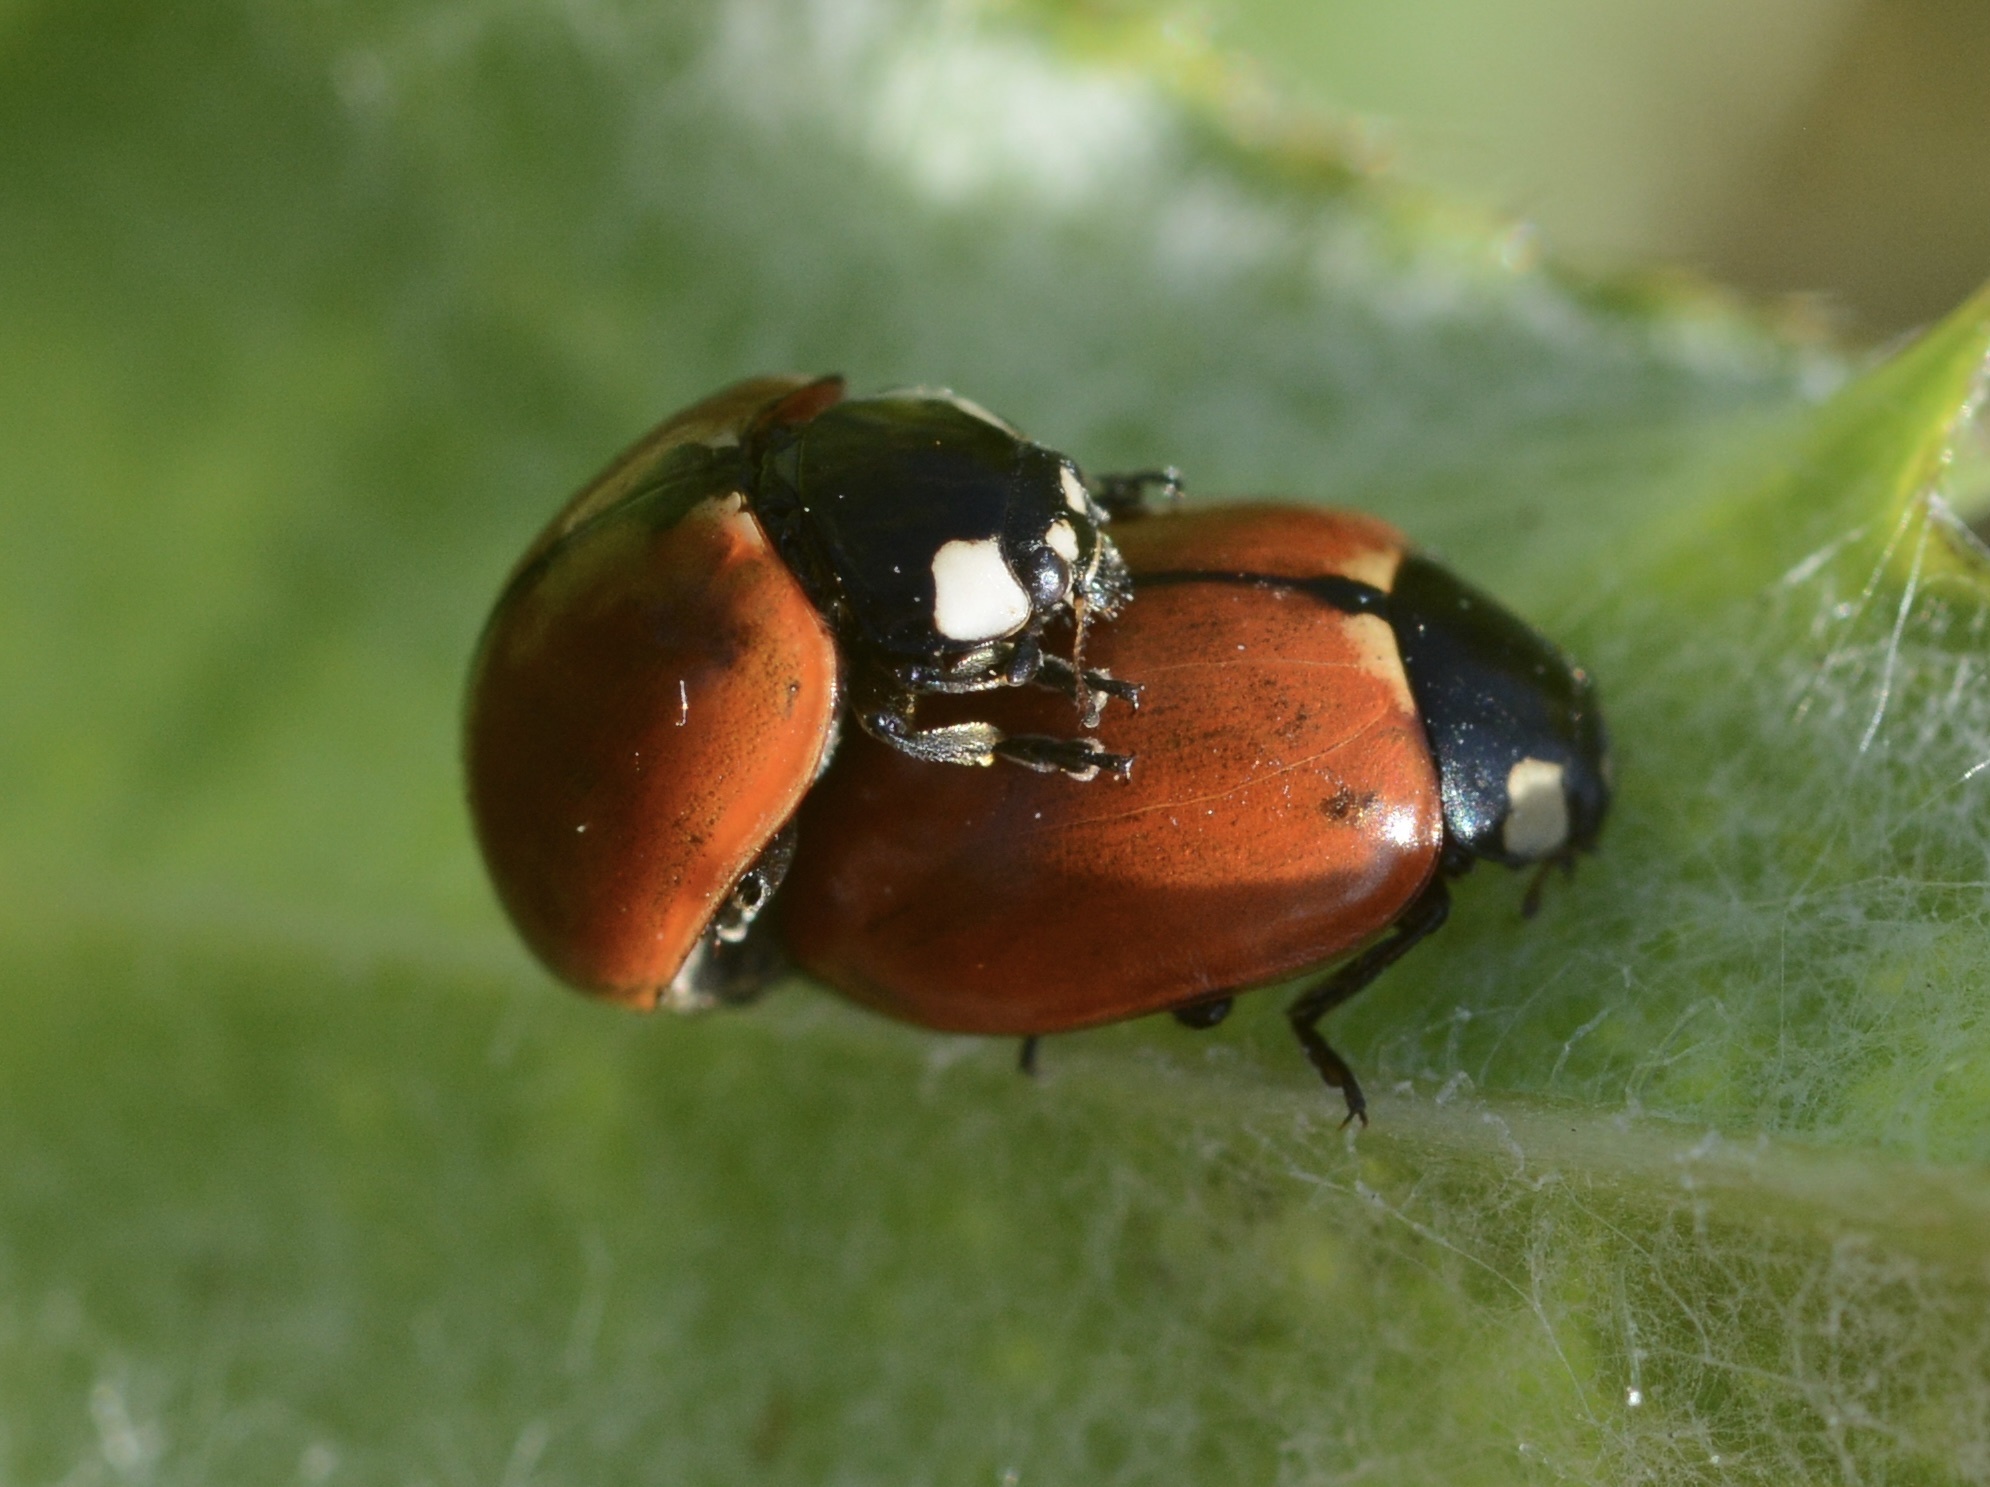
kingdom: Animalia
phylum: Arthropoda
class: Insecta
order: Coleoptera
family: Coccinellidae
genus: Coccinella
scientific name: Coccinella californica
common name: Lady beetle
